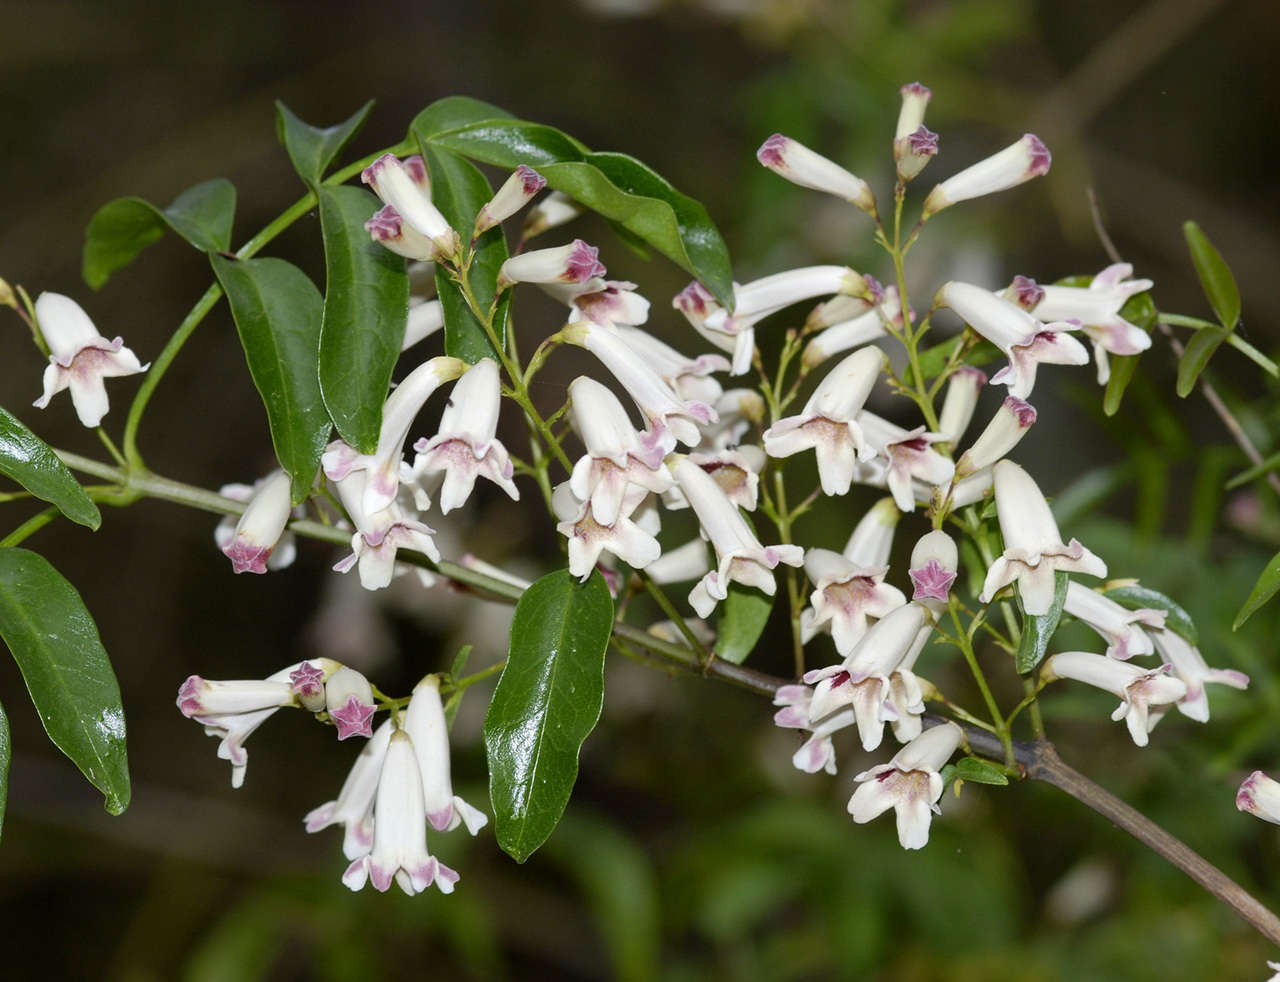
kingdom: Plantae
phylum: Tracheophyta
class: Magnoliopsida
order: Lamiales
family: Bignoniaceae
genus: Pandorea
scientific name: Pandorea pandorana
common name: Wonga-wonga-vine
